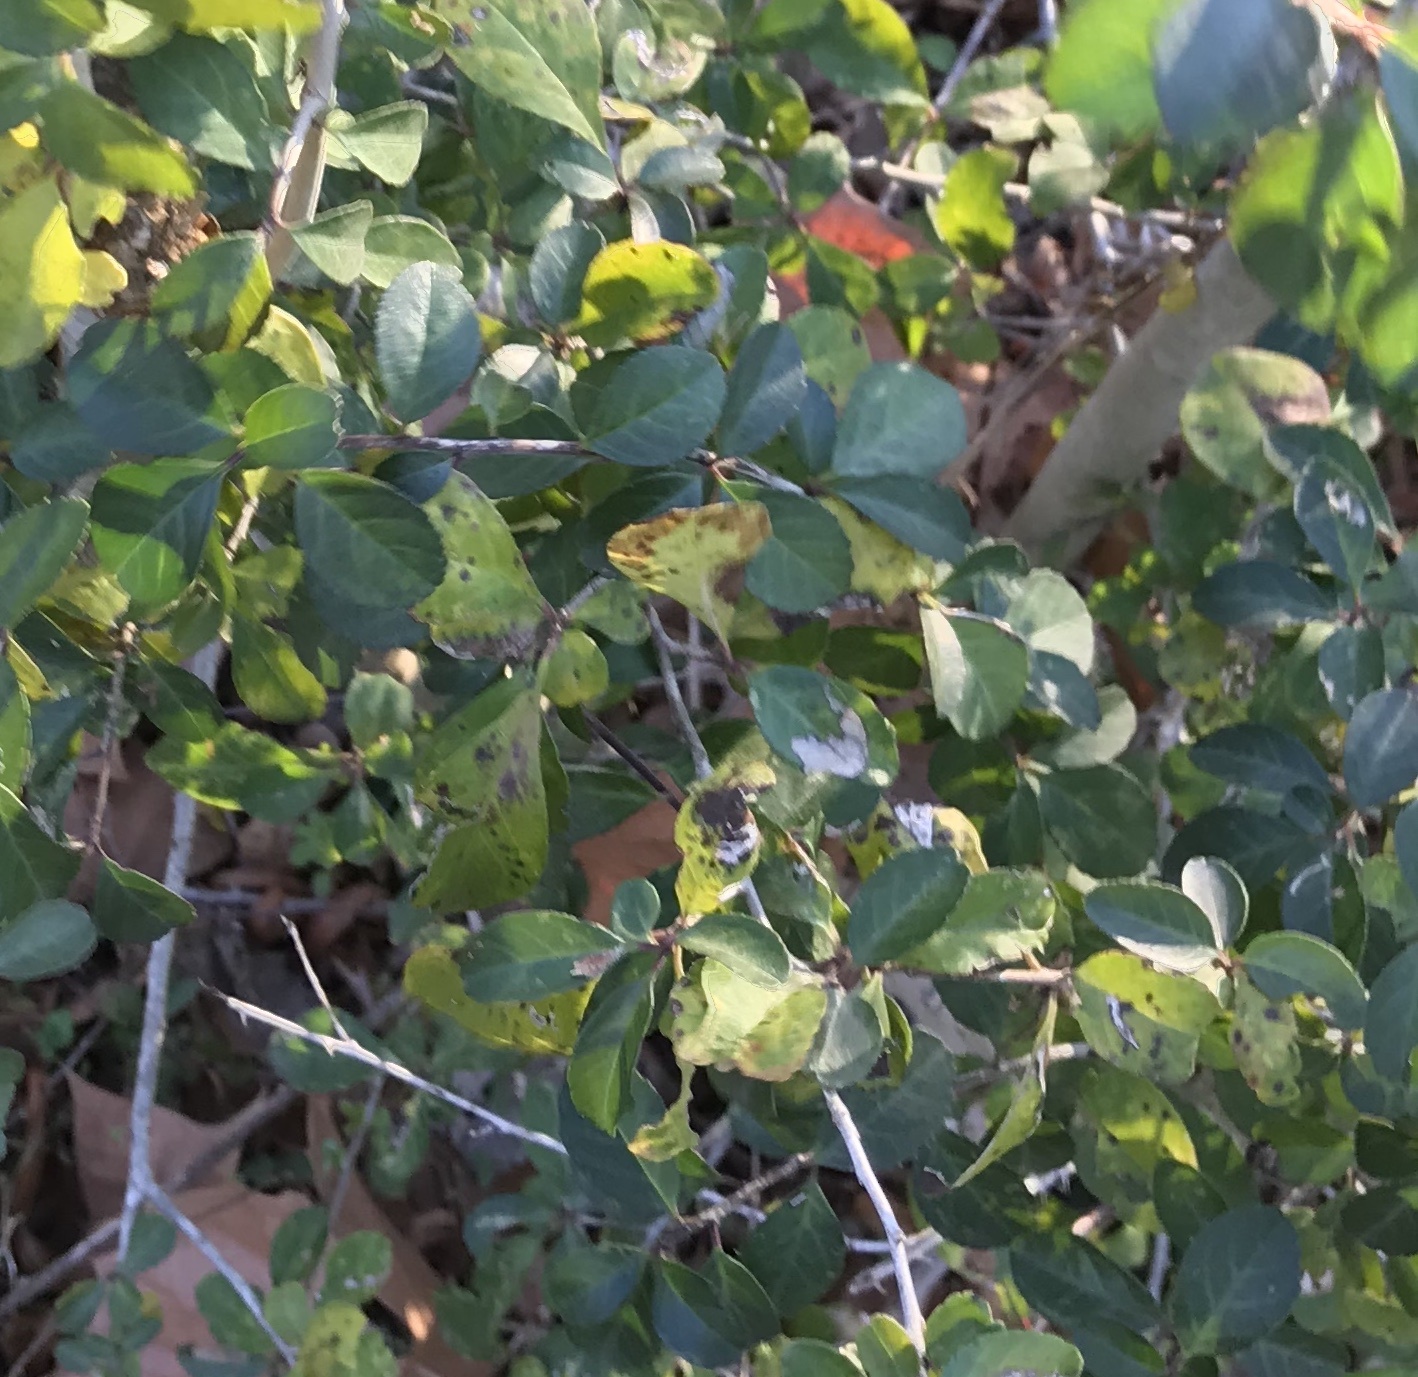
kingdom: Plantae
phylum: Tracheophyta
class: Magnoliopsida
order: Aquifoliales
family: Aquifoliaceae
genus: Ilex
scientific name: Ilex vomitoria
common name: Yaupon holly
